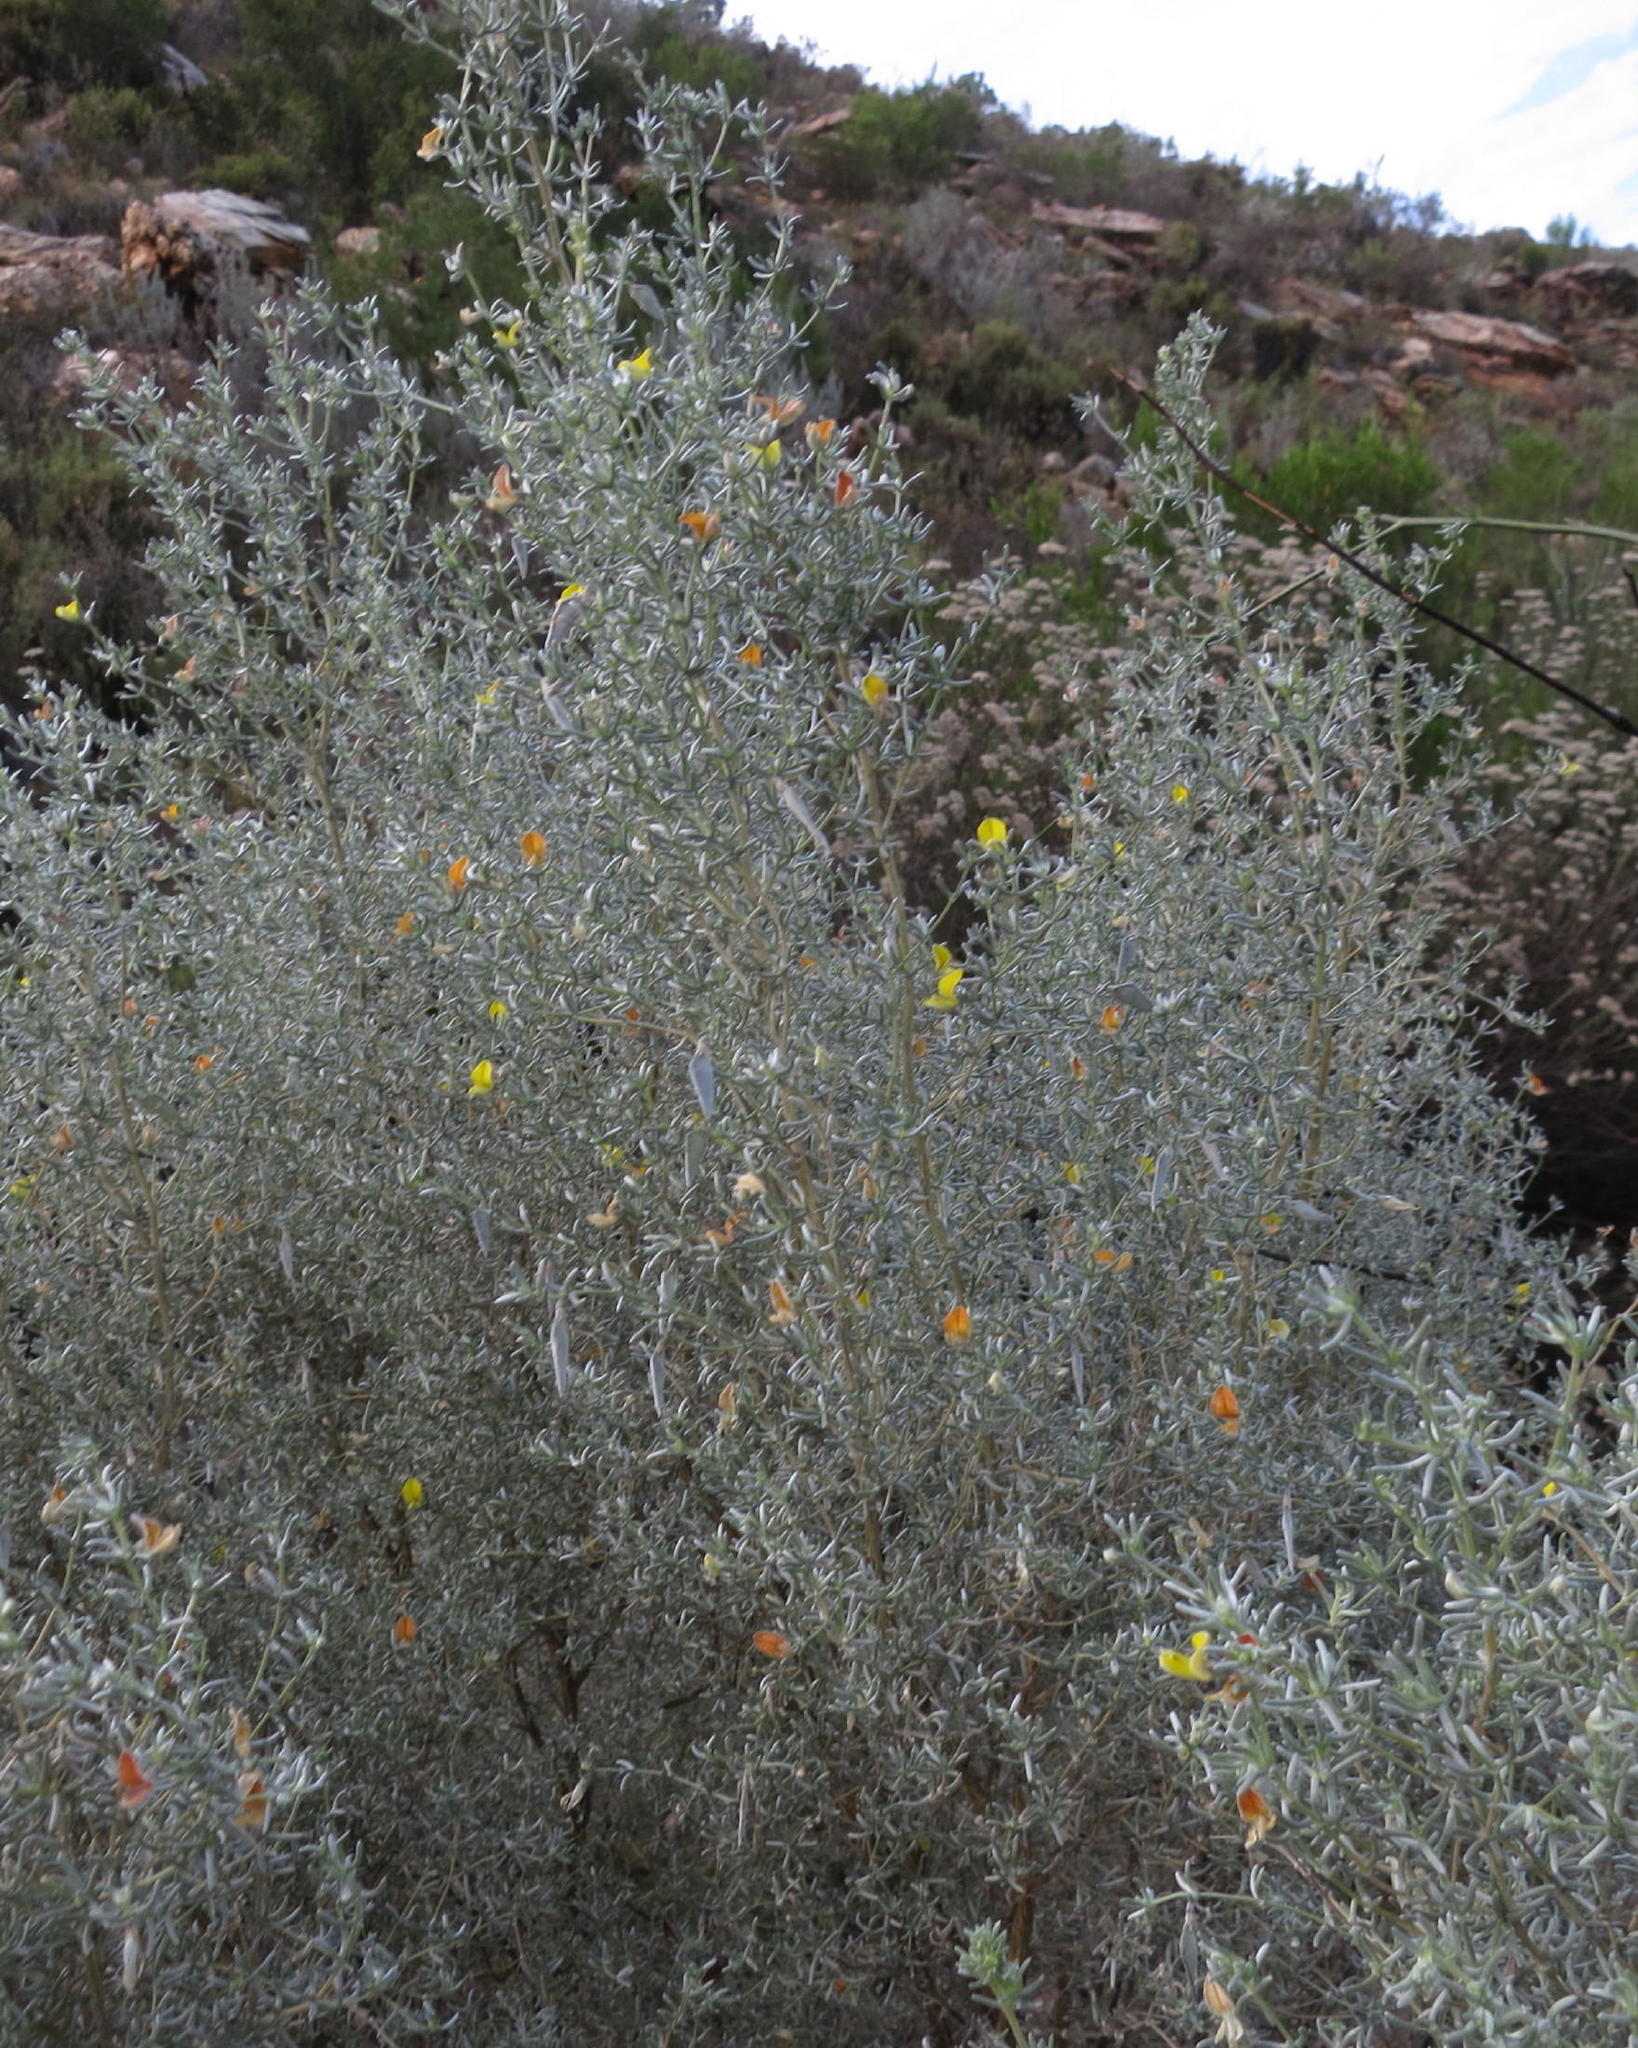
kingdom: Plantae
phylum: Tracheophyta
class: Magnoliopsida
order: Fabales
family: Fabaceae
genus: Aspalathus
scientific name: Aspalathus pedunculata
